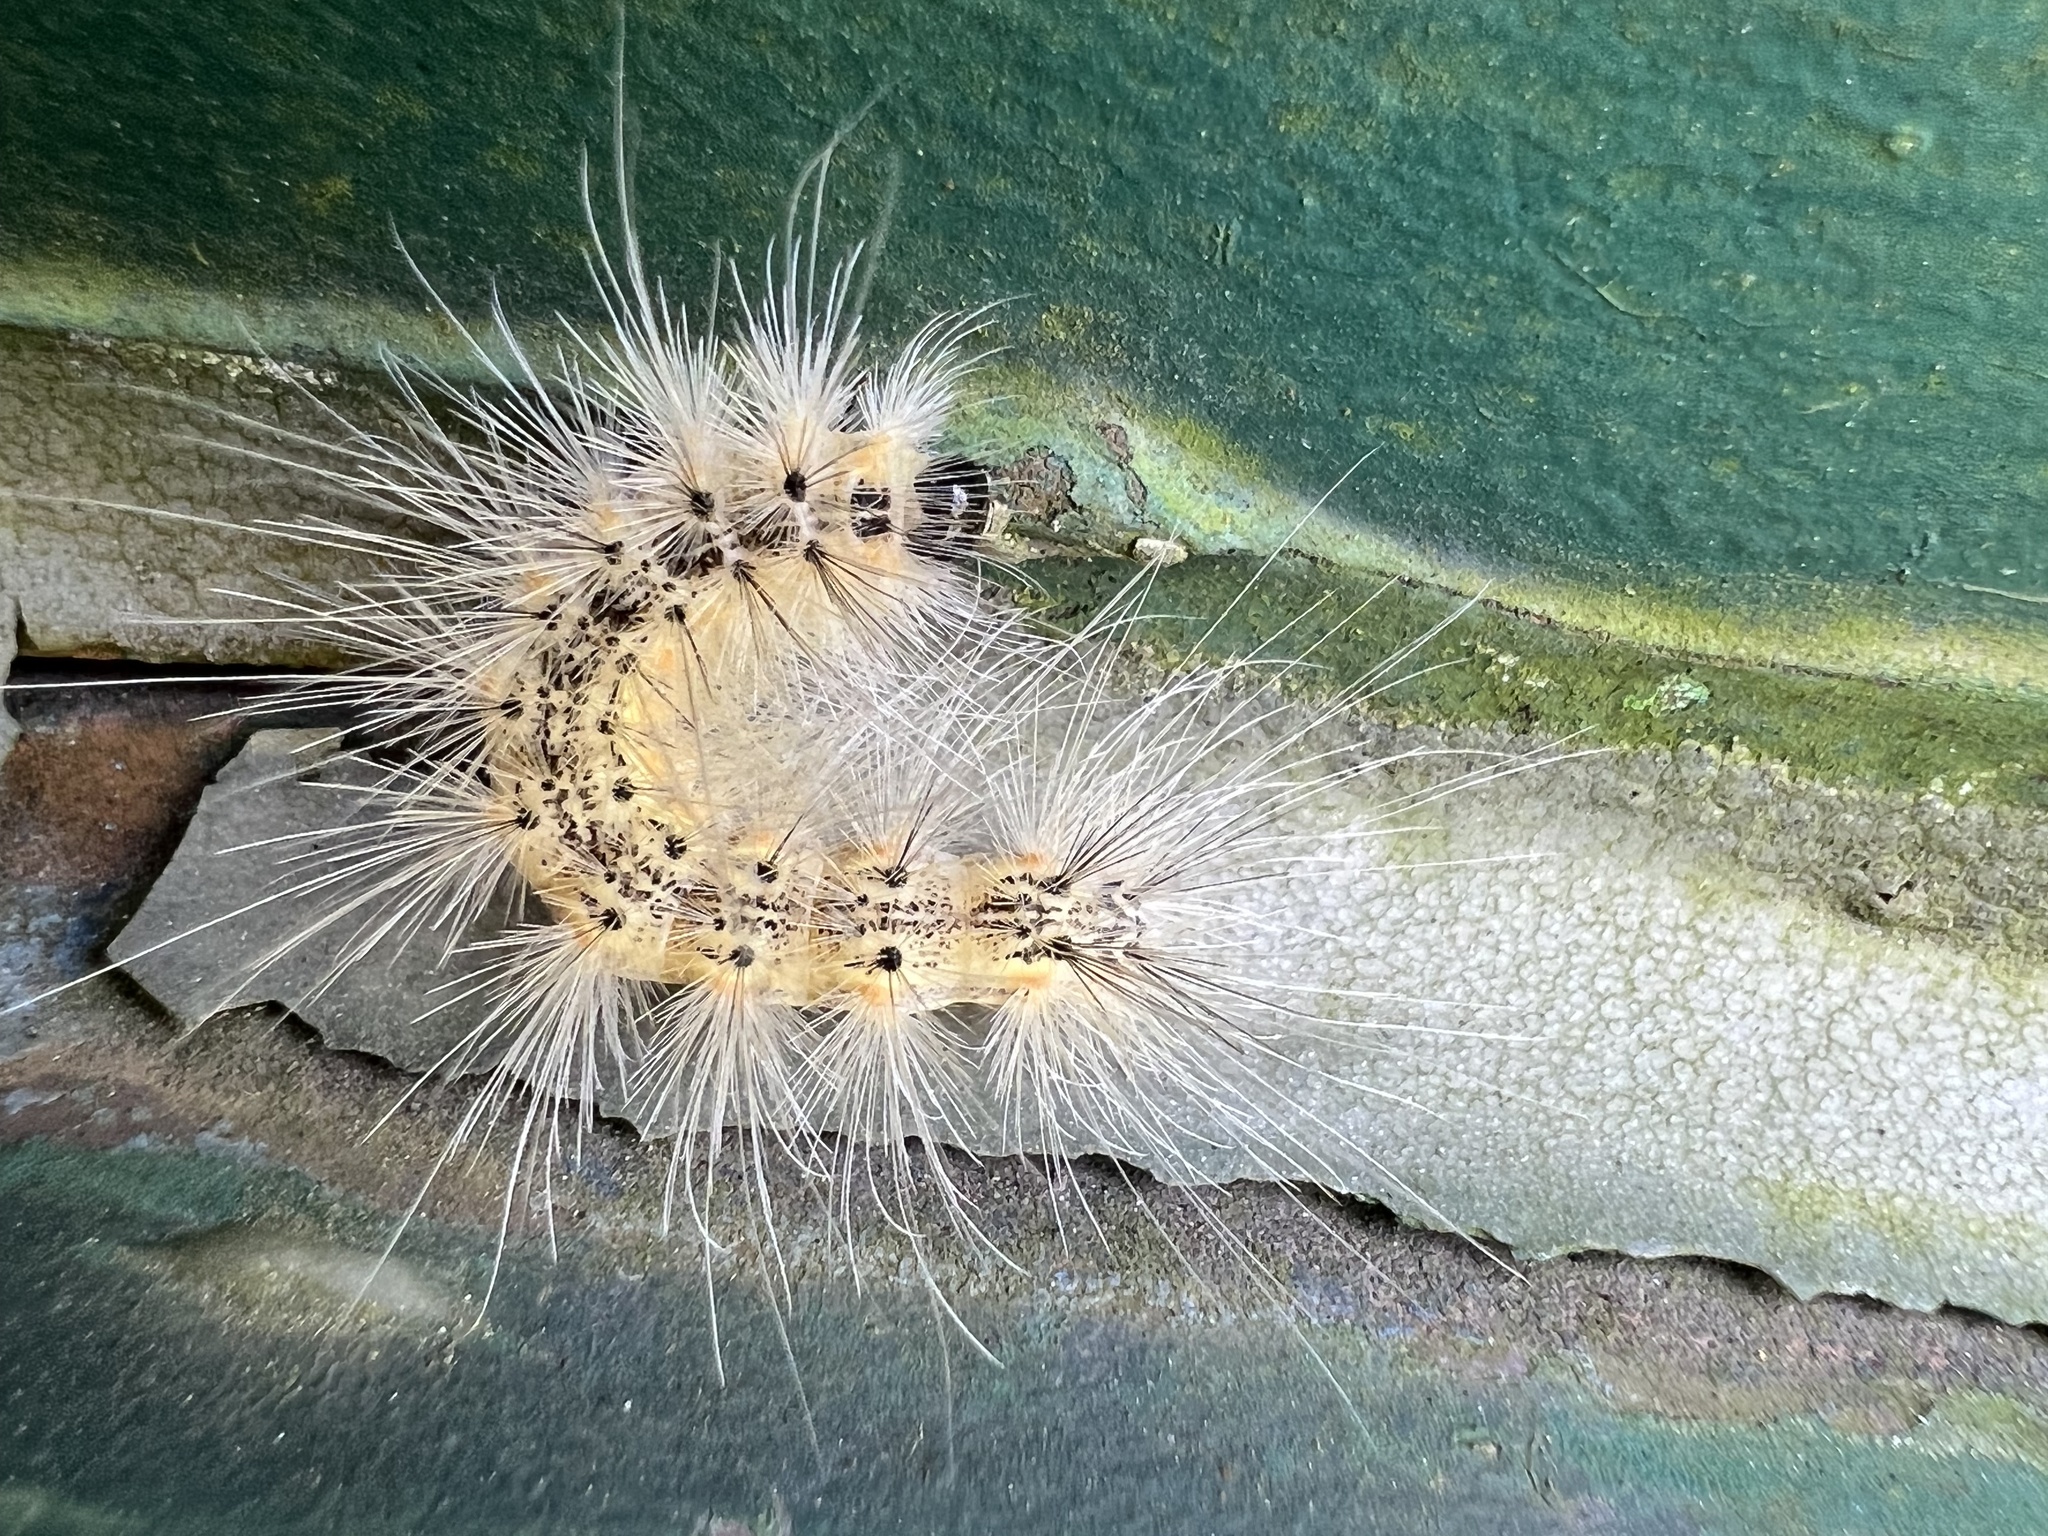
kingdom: Animalia
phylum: Arthropoda
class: Insecta
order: Lepidoptera
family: Erebidae
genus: Hyphantria
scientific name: Hyphantria cunea
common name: American white moth
